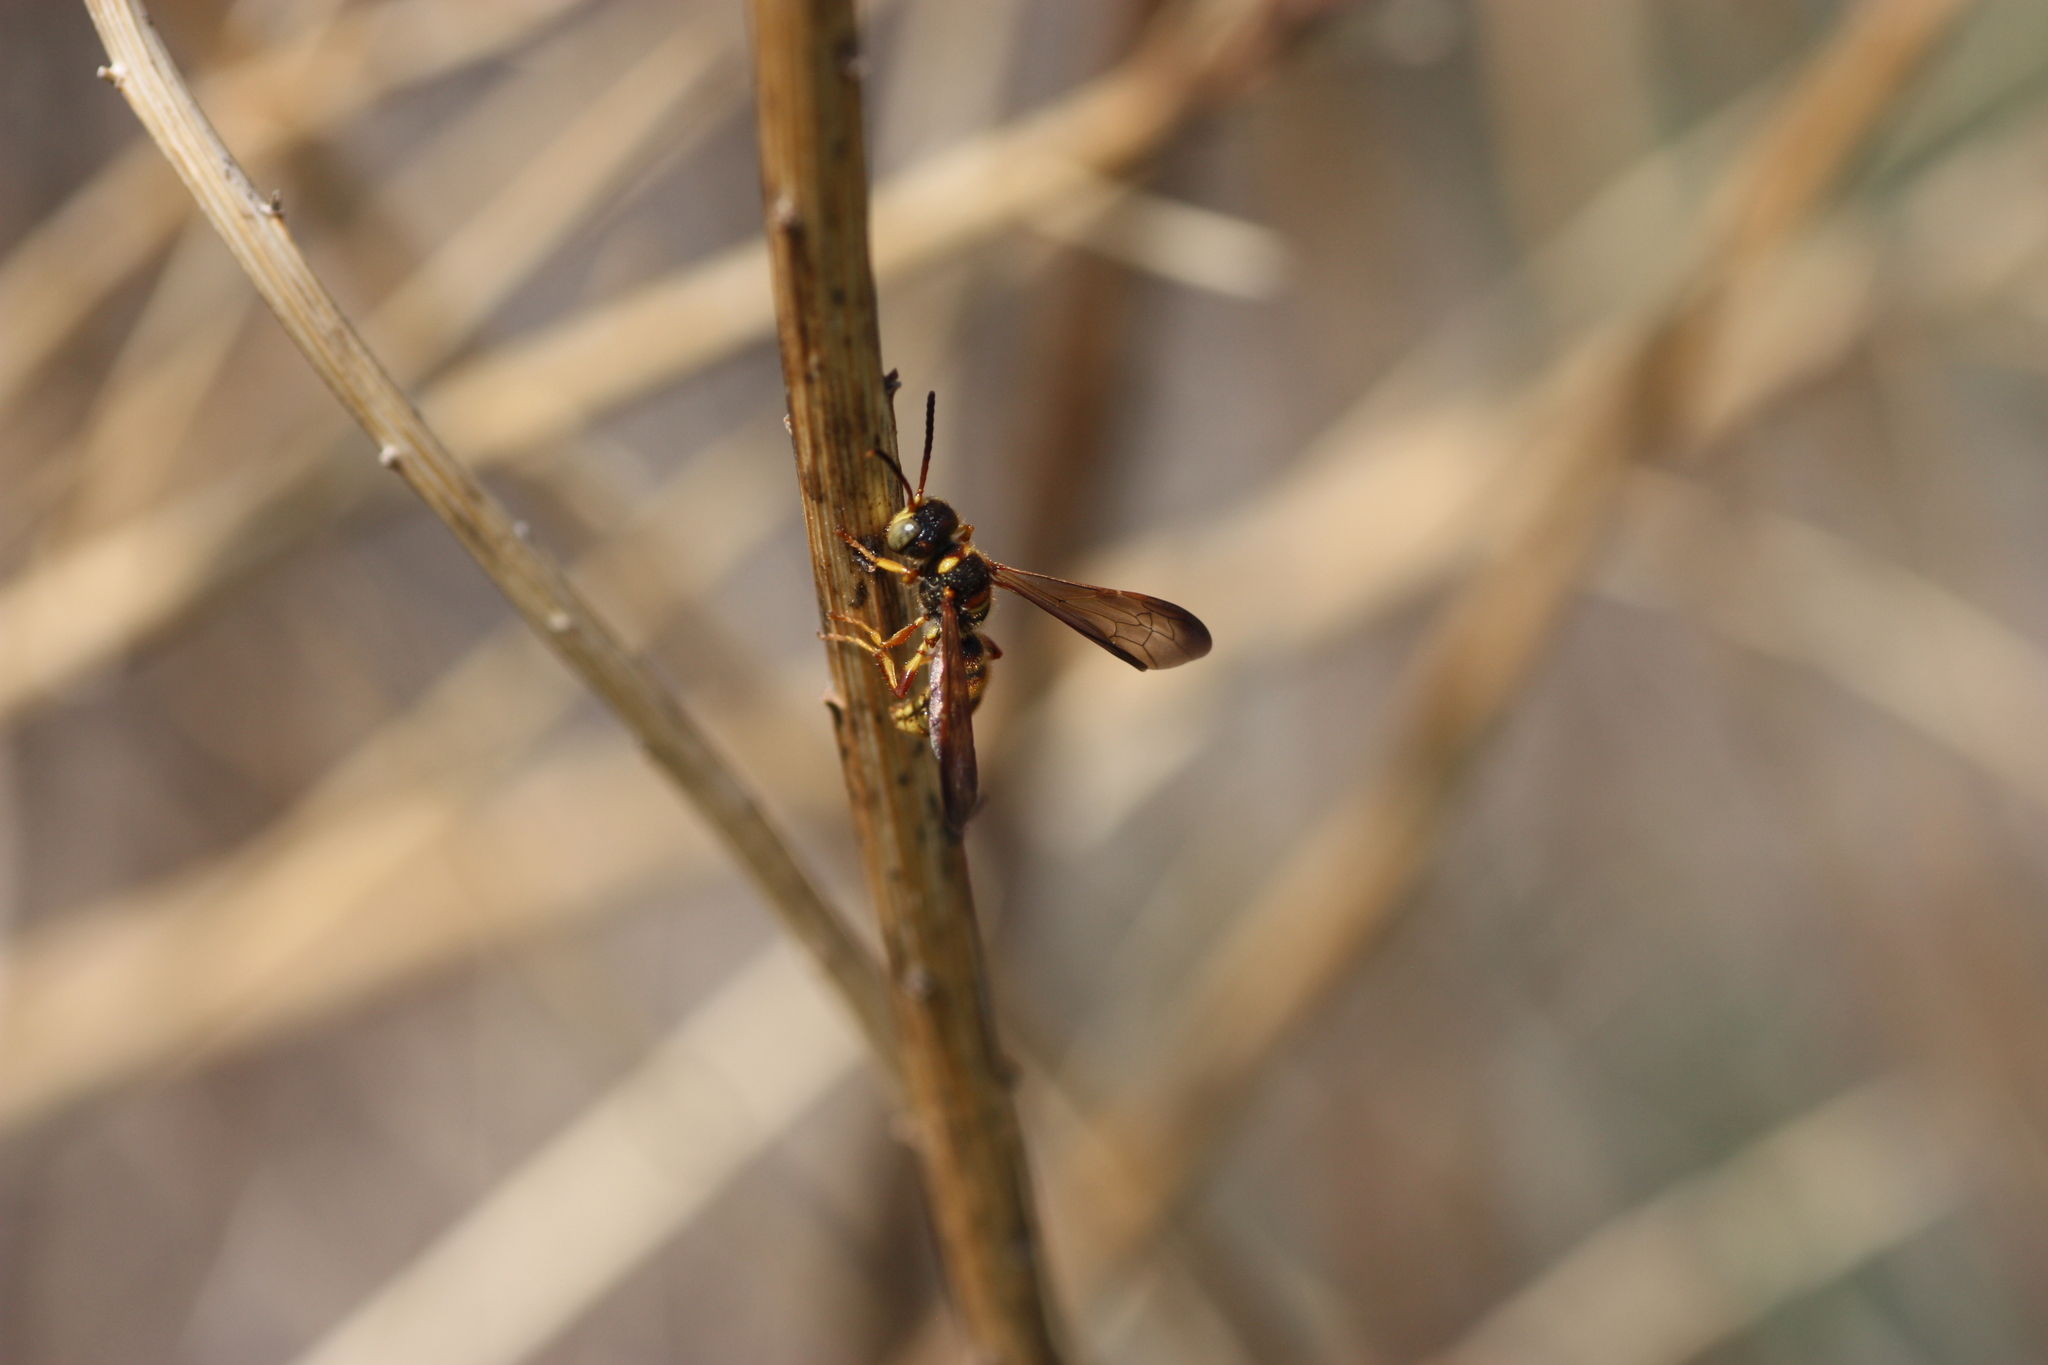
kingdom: Animalia
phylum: Arthropoda
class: Insecta
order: Hymenoptera
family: Crabronidae
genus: Cerceris
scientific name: Cerceris
